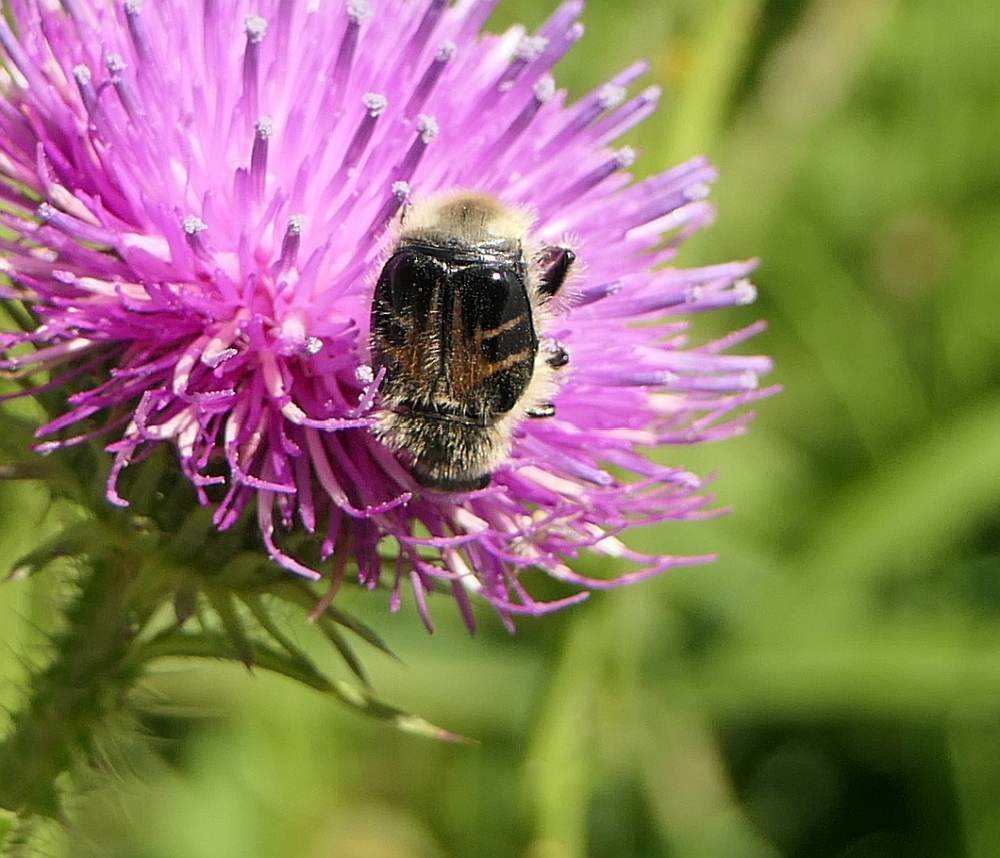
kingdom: Animalia
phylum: Arthropoda
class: Insecta
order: Coleoptera
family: Scarabaeidae
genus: Trichiotinus
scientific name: Trichiotinus assimilis
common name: Bee-mimic beetle
